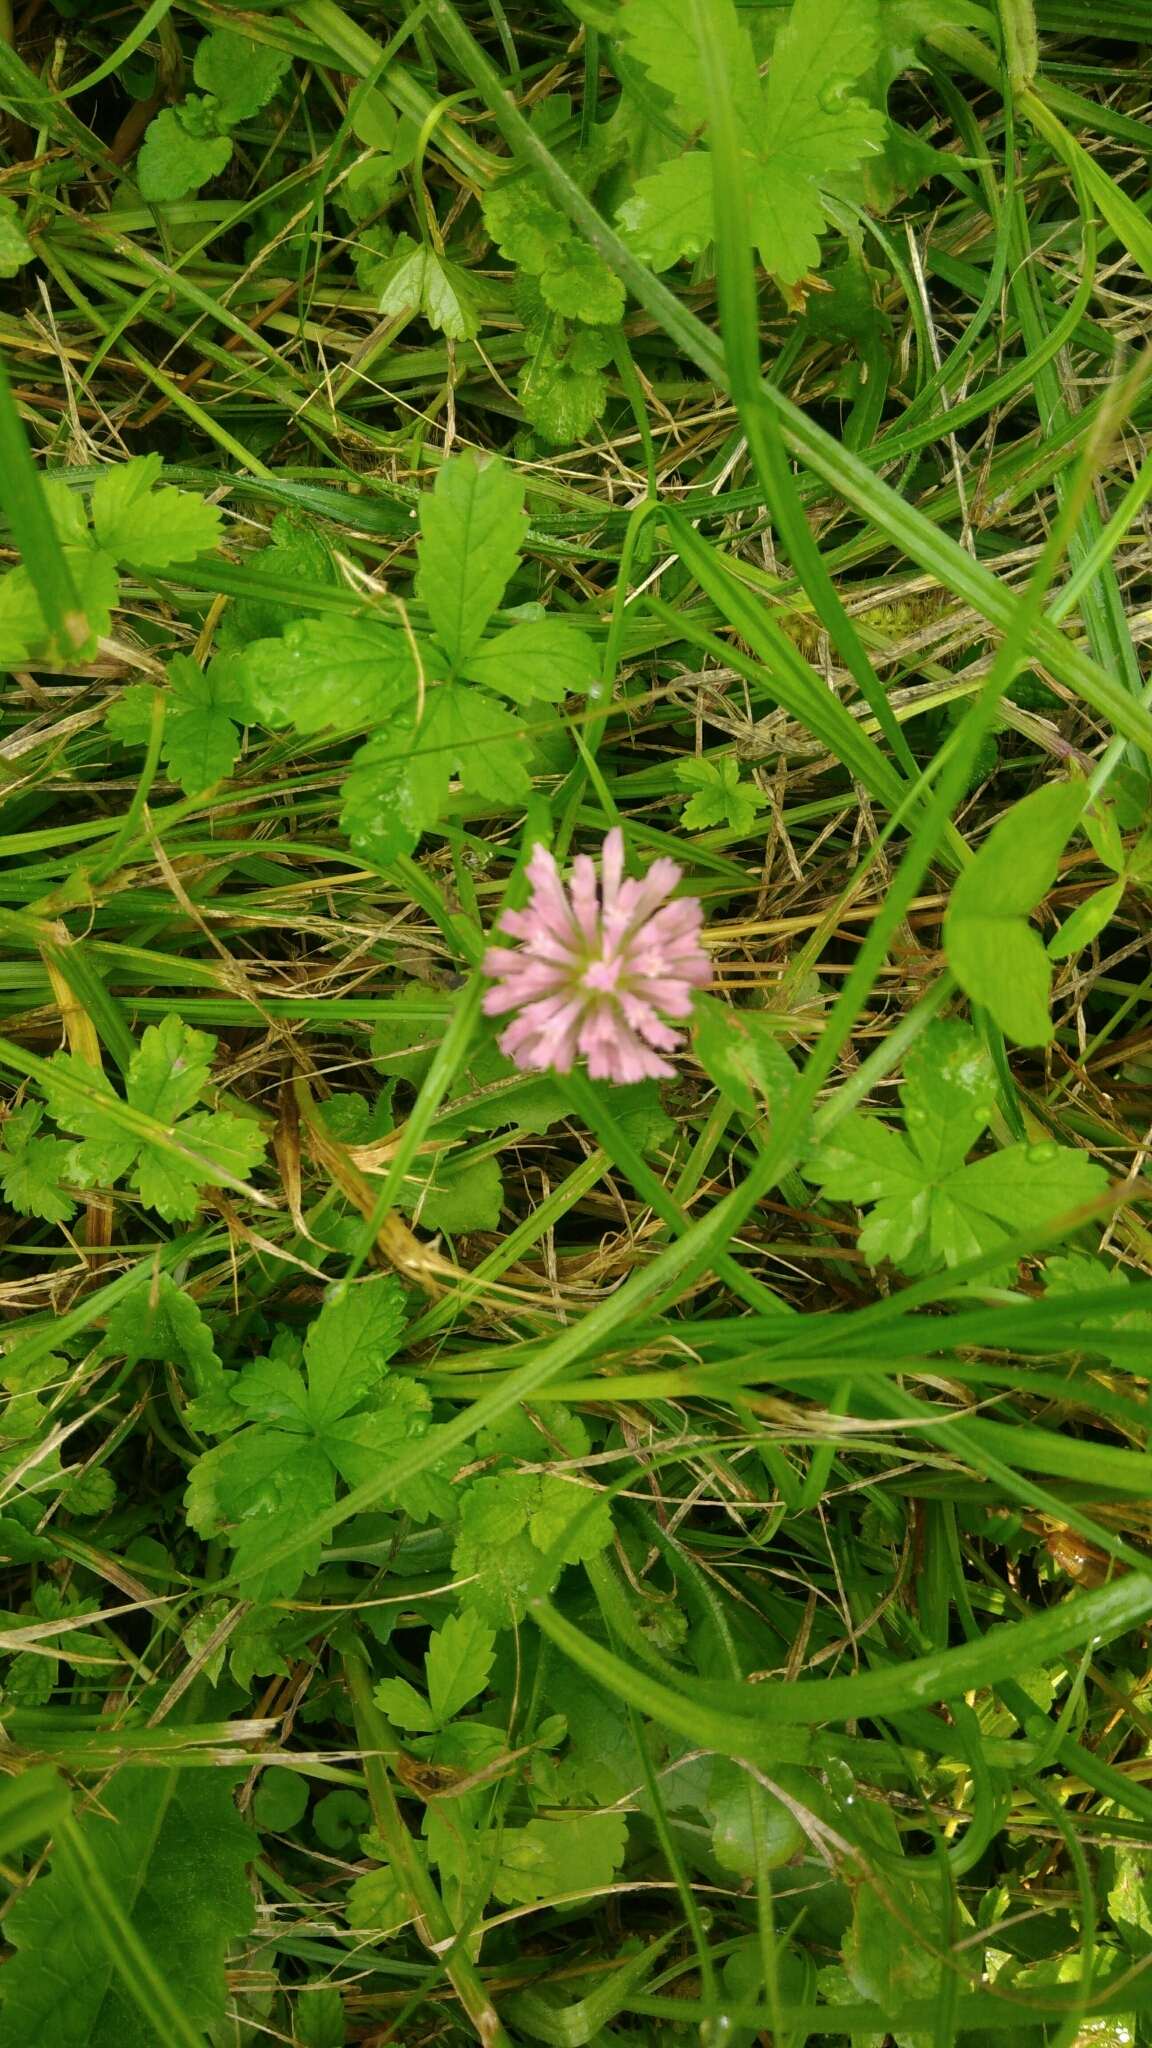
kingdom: Plantae
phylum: Tracheophyta
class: Magnoliopsida
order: Fabales
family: Fabaceae
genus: Trifolium
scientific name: Trifolium pratense
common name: Red clover
